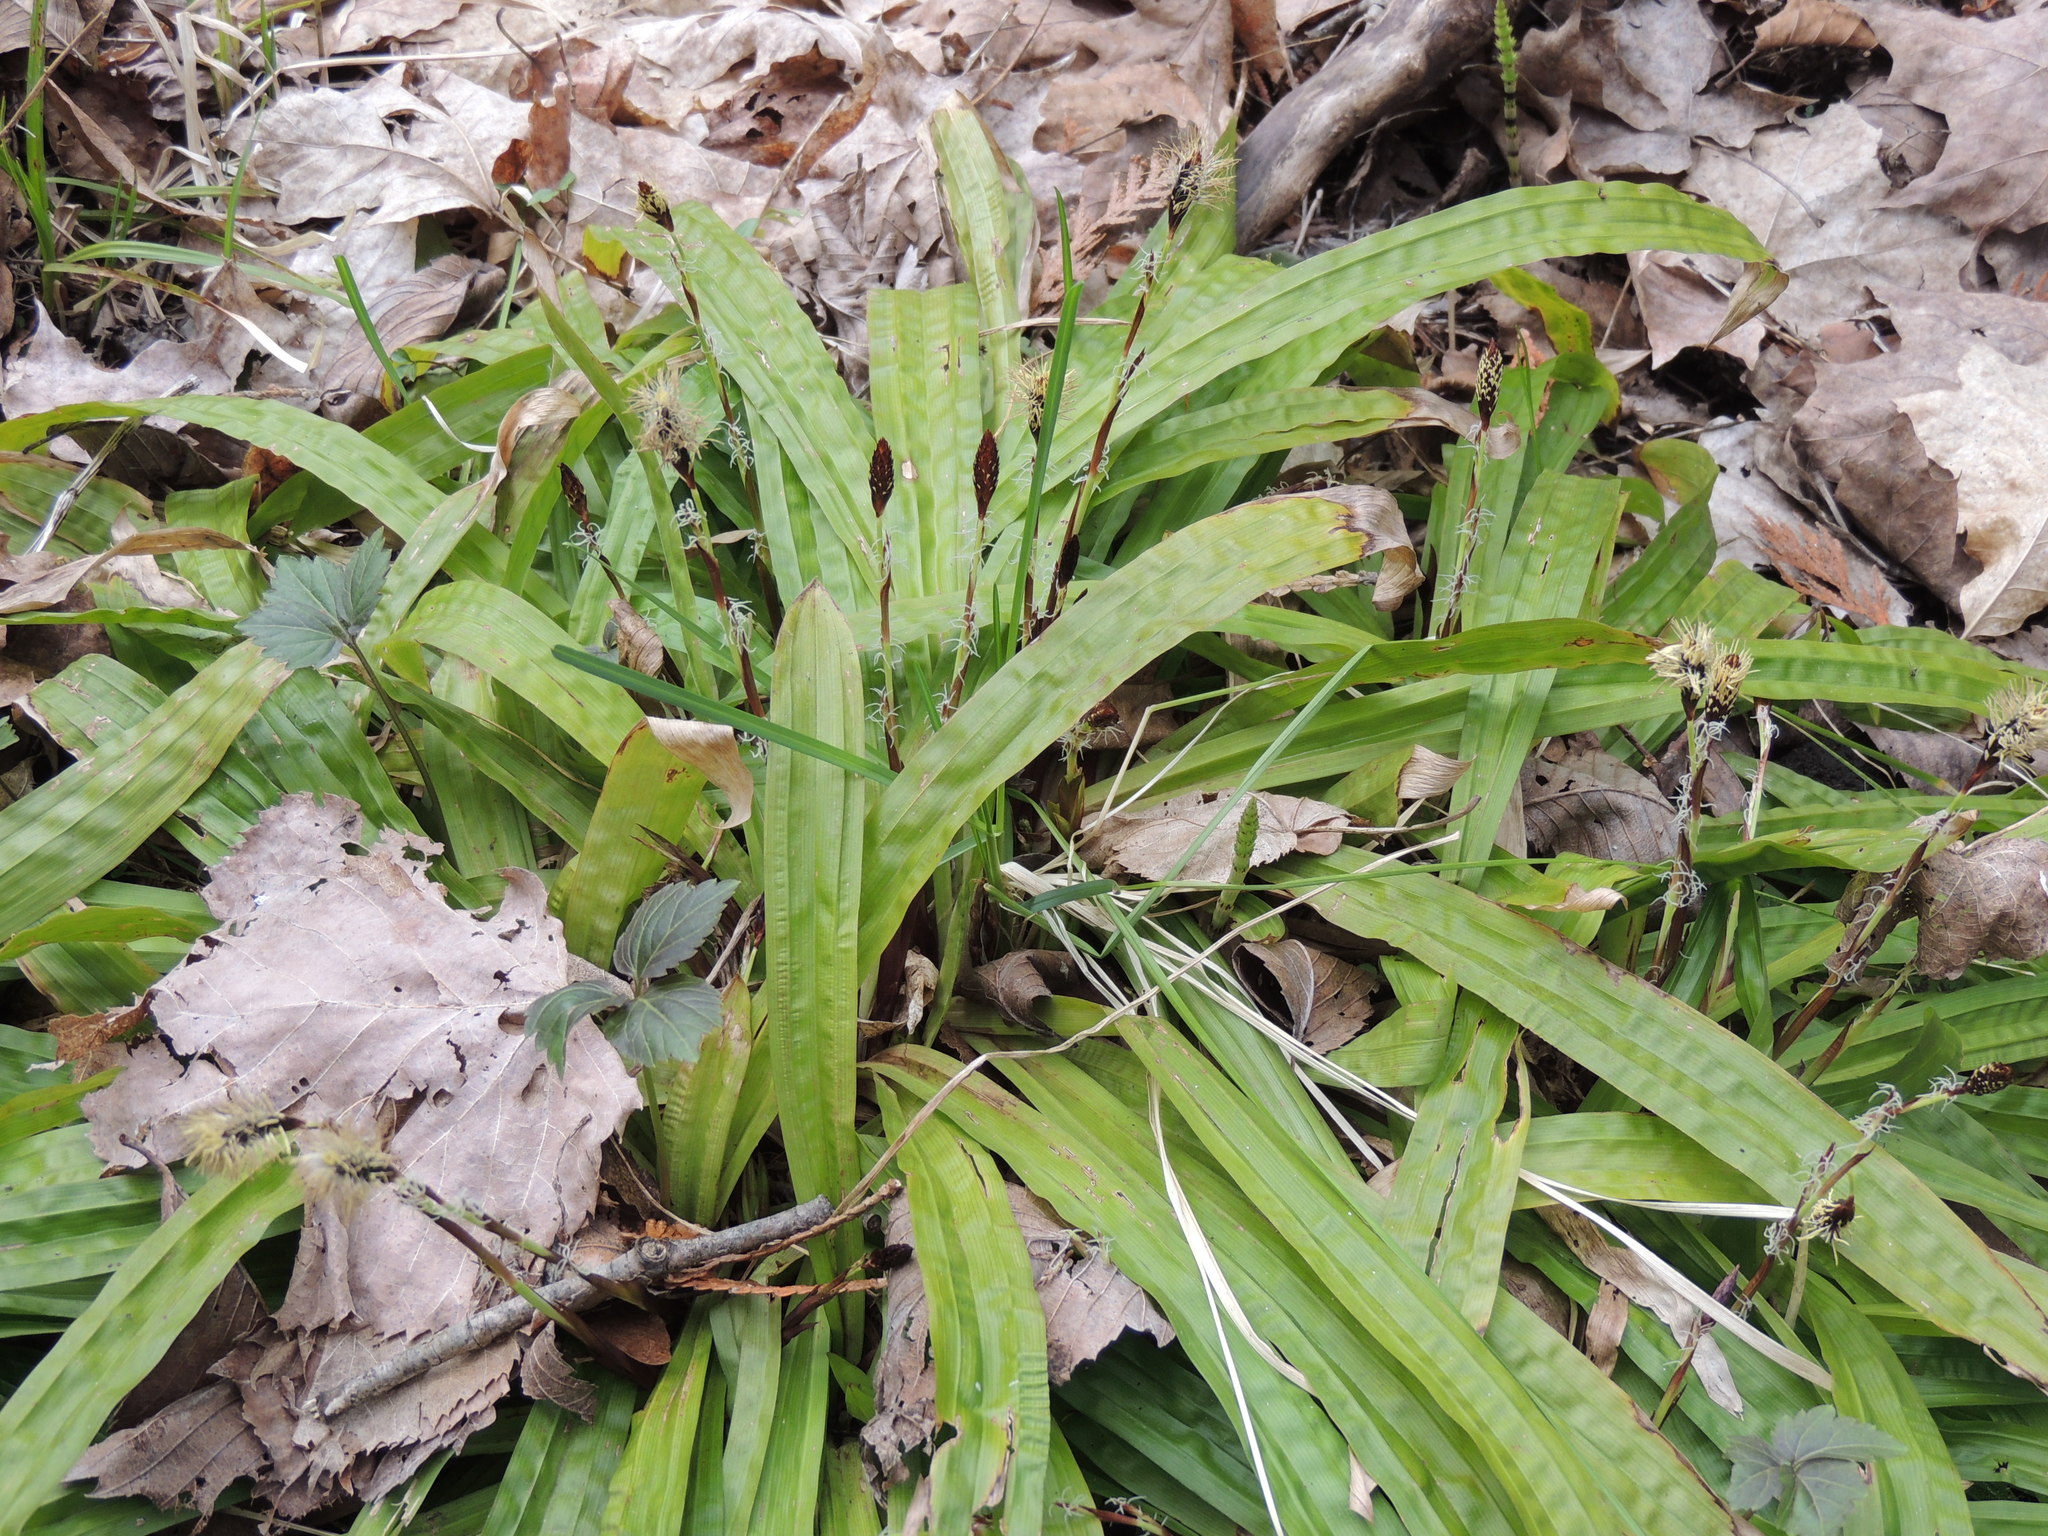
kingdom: Plantae
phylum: Tracheophyta
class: Liliopsida
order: Poales
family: Cyperaceae
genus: Carex
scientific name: Carex plantaginea
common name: Plantain-leaved sedge
